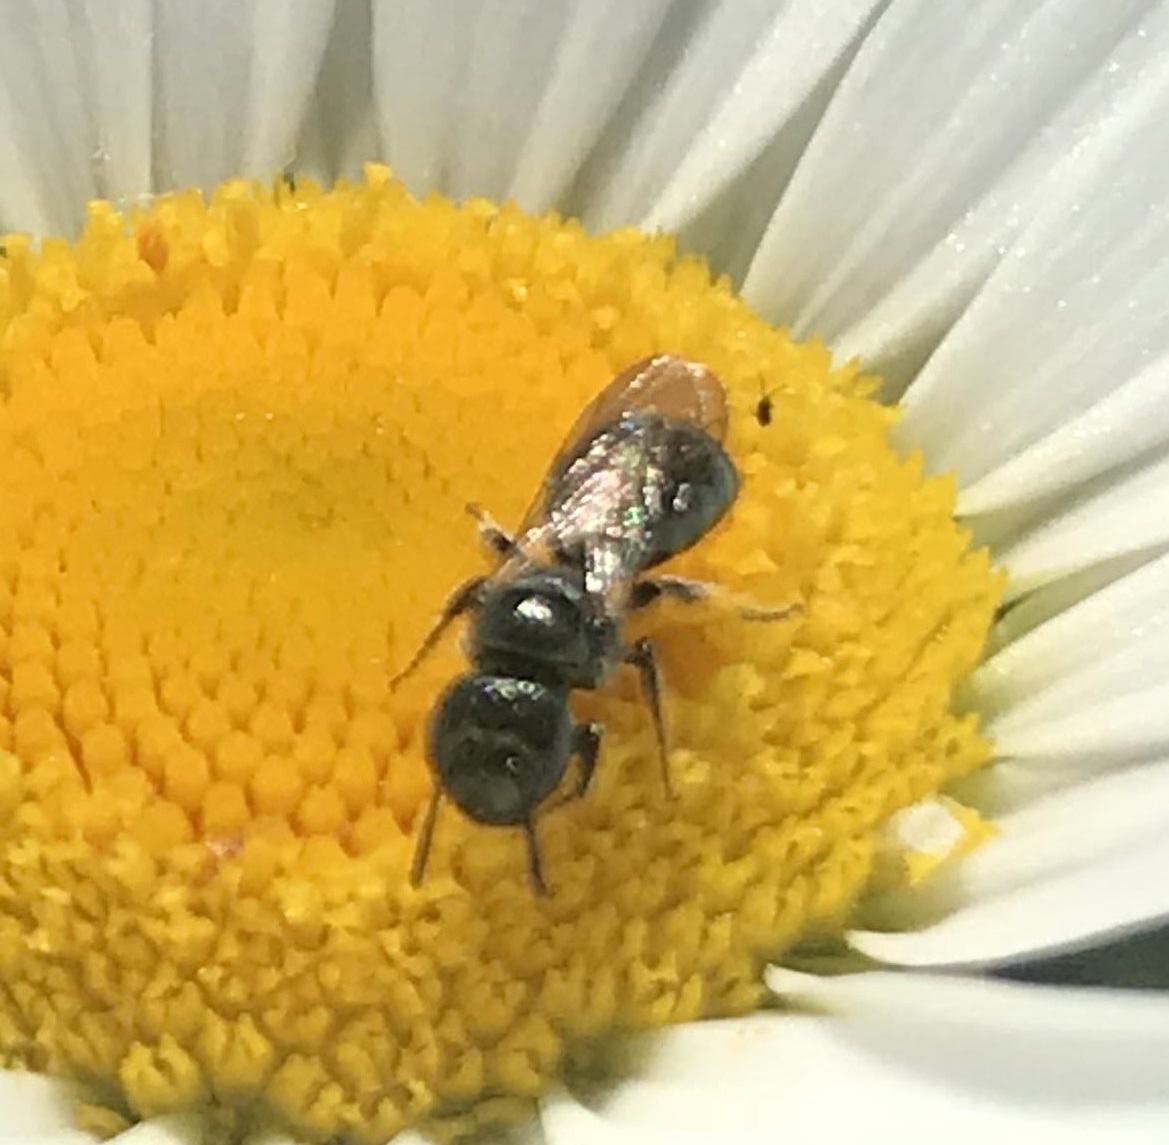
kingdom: Animalia
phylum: Arthropoda
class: Insecta
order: Hymenoptera
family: Apidae
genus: Zadontomerus
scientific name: Zadontomerus
